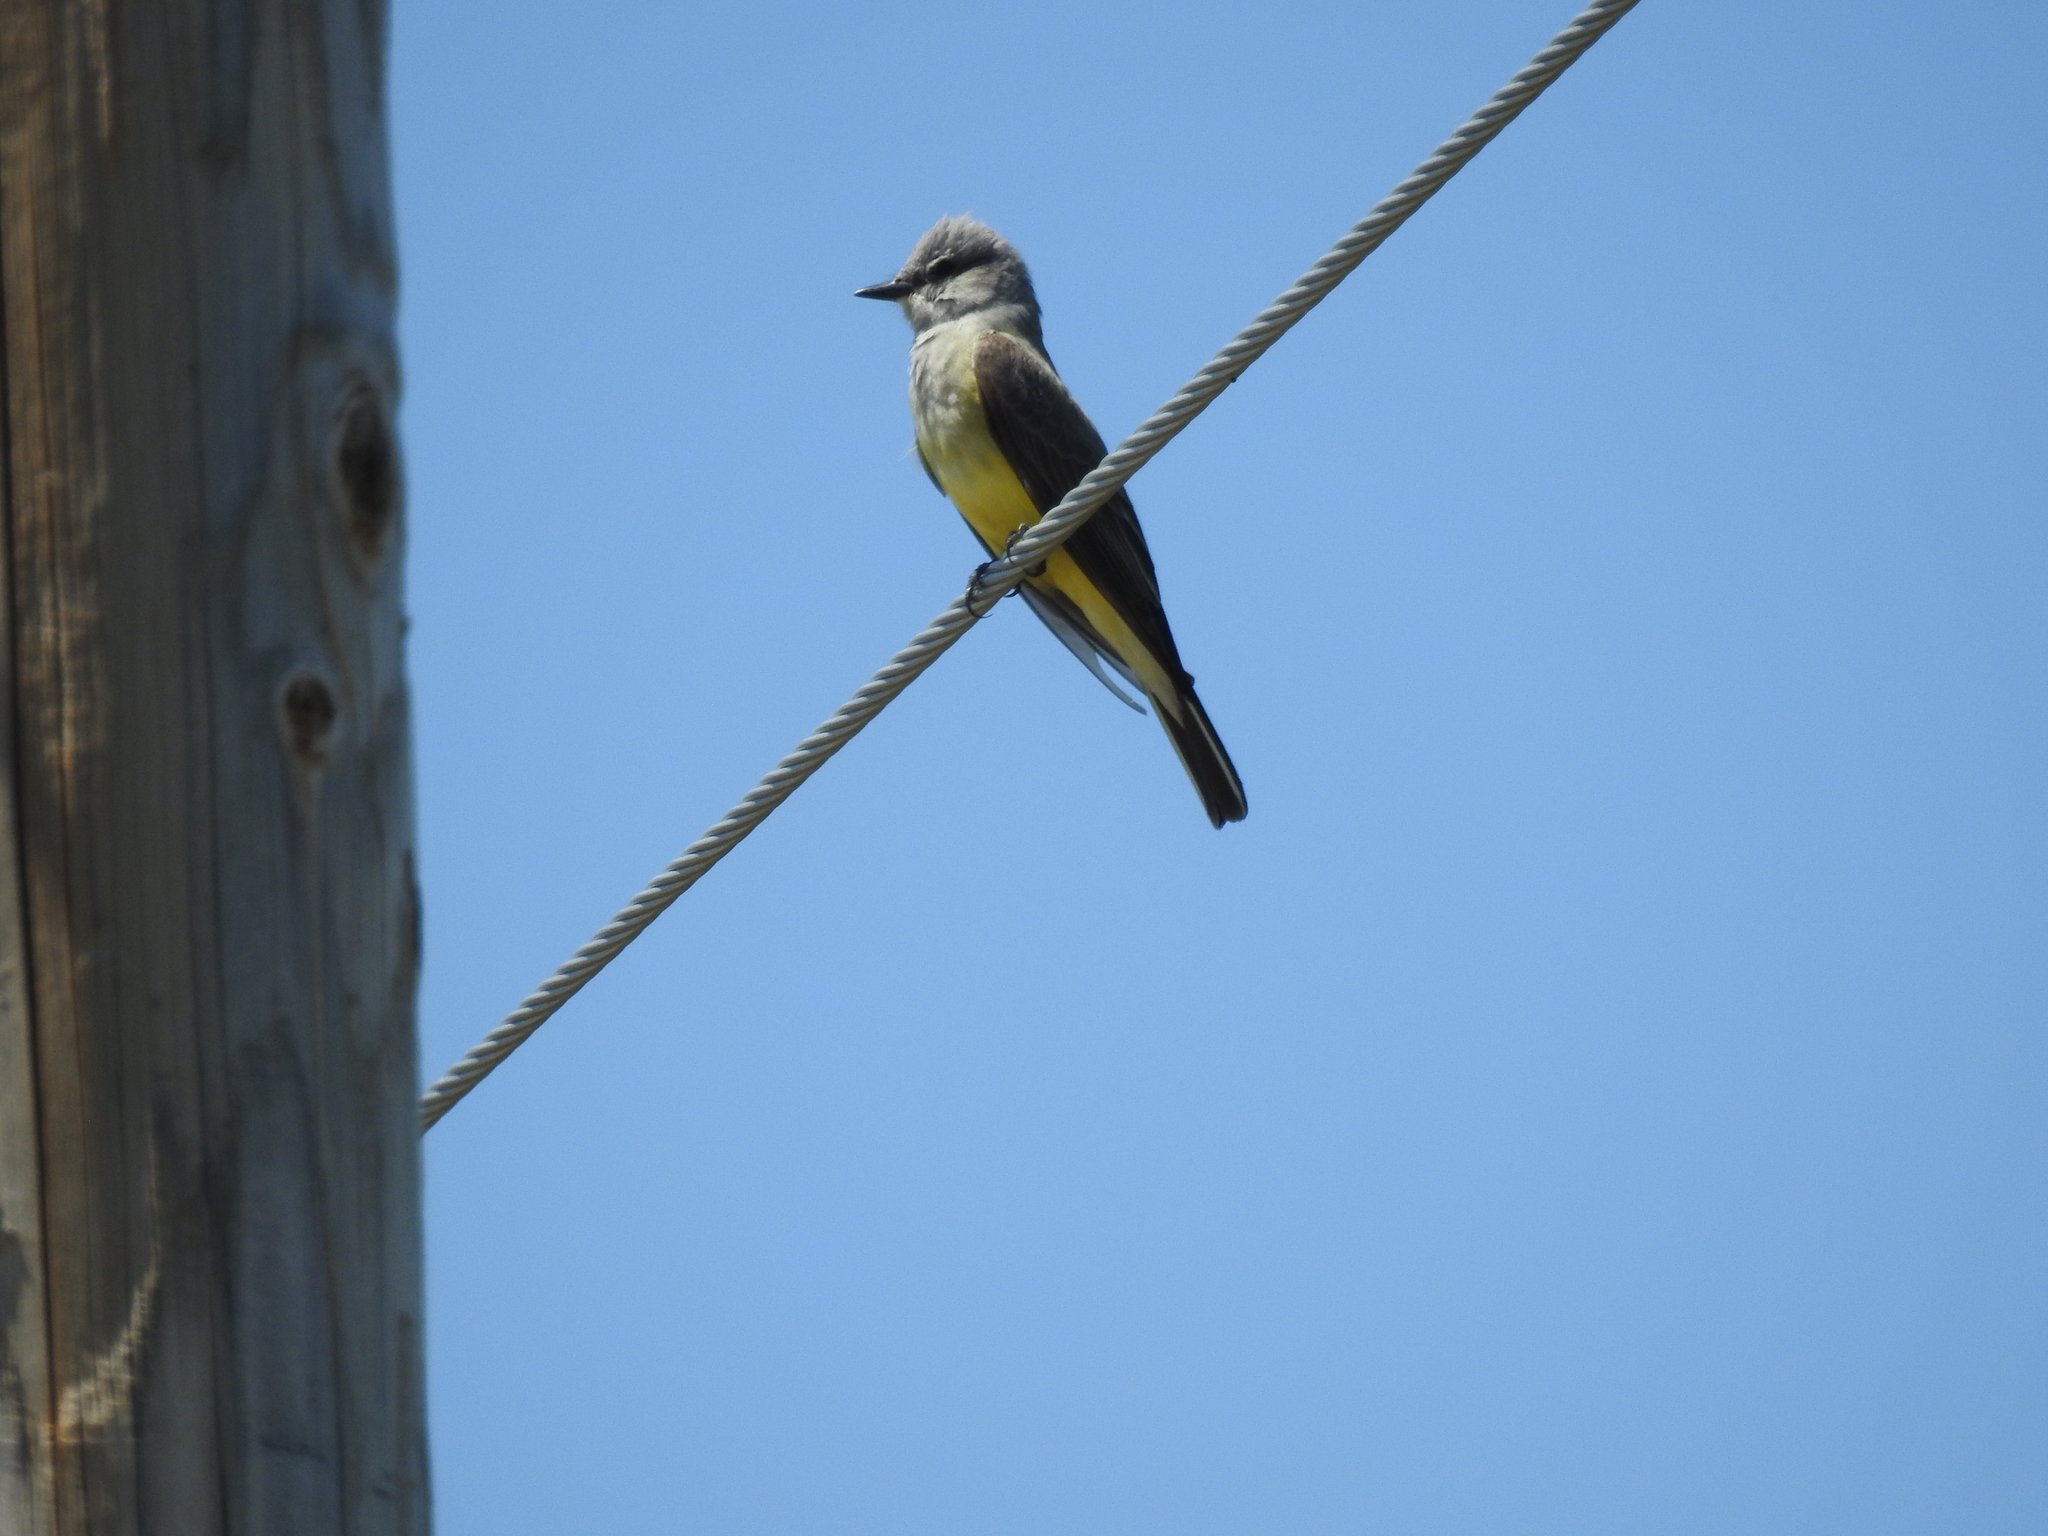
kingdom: Animalia
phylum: Chordata
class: Aves
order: Passeriformes
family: Tyrannidae
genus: Tyrannus
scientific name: Tyrannus verticalis
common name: Western kingbird
